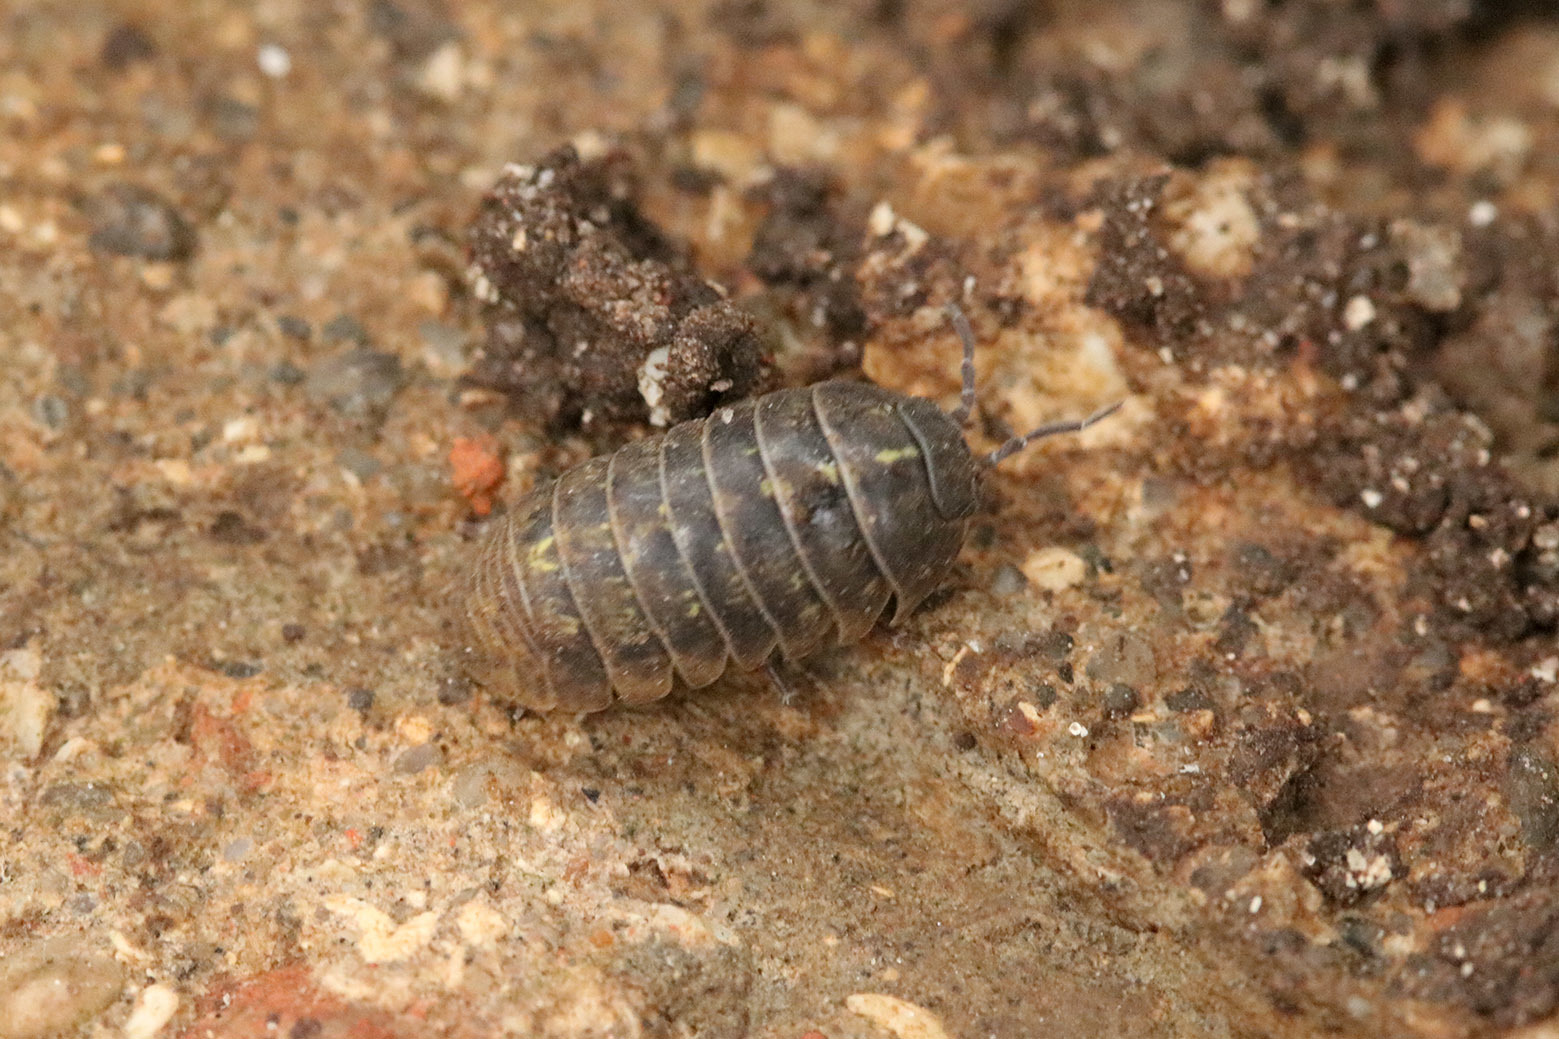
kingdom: Animalia
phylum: Arthropoda
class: Malacostraca
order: Isopoda
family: Armadillidiidae
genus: Armadillidium
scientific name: Armadillidium vulgare
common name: Common pill woodlouse
